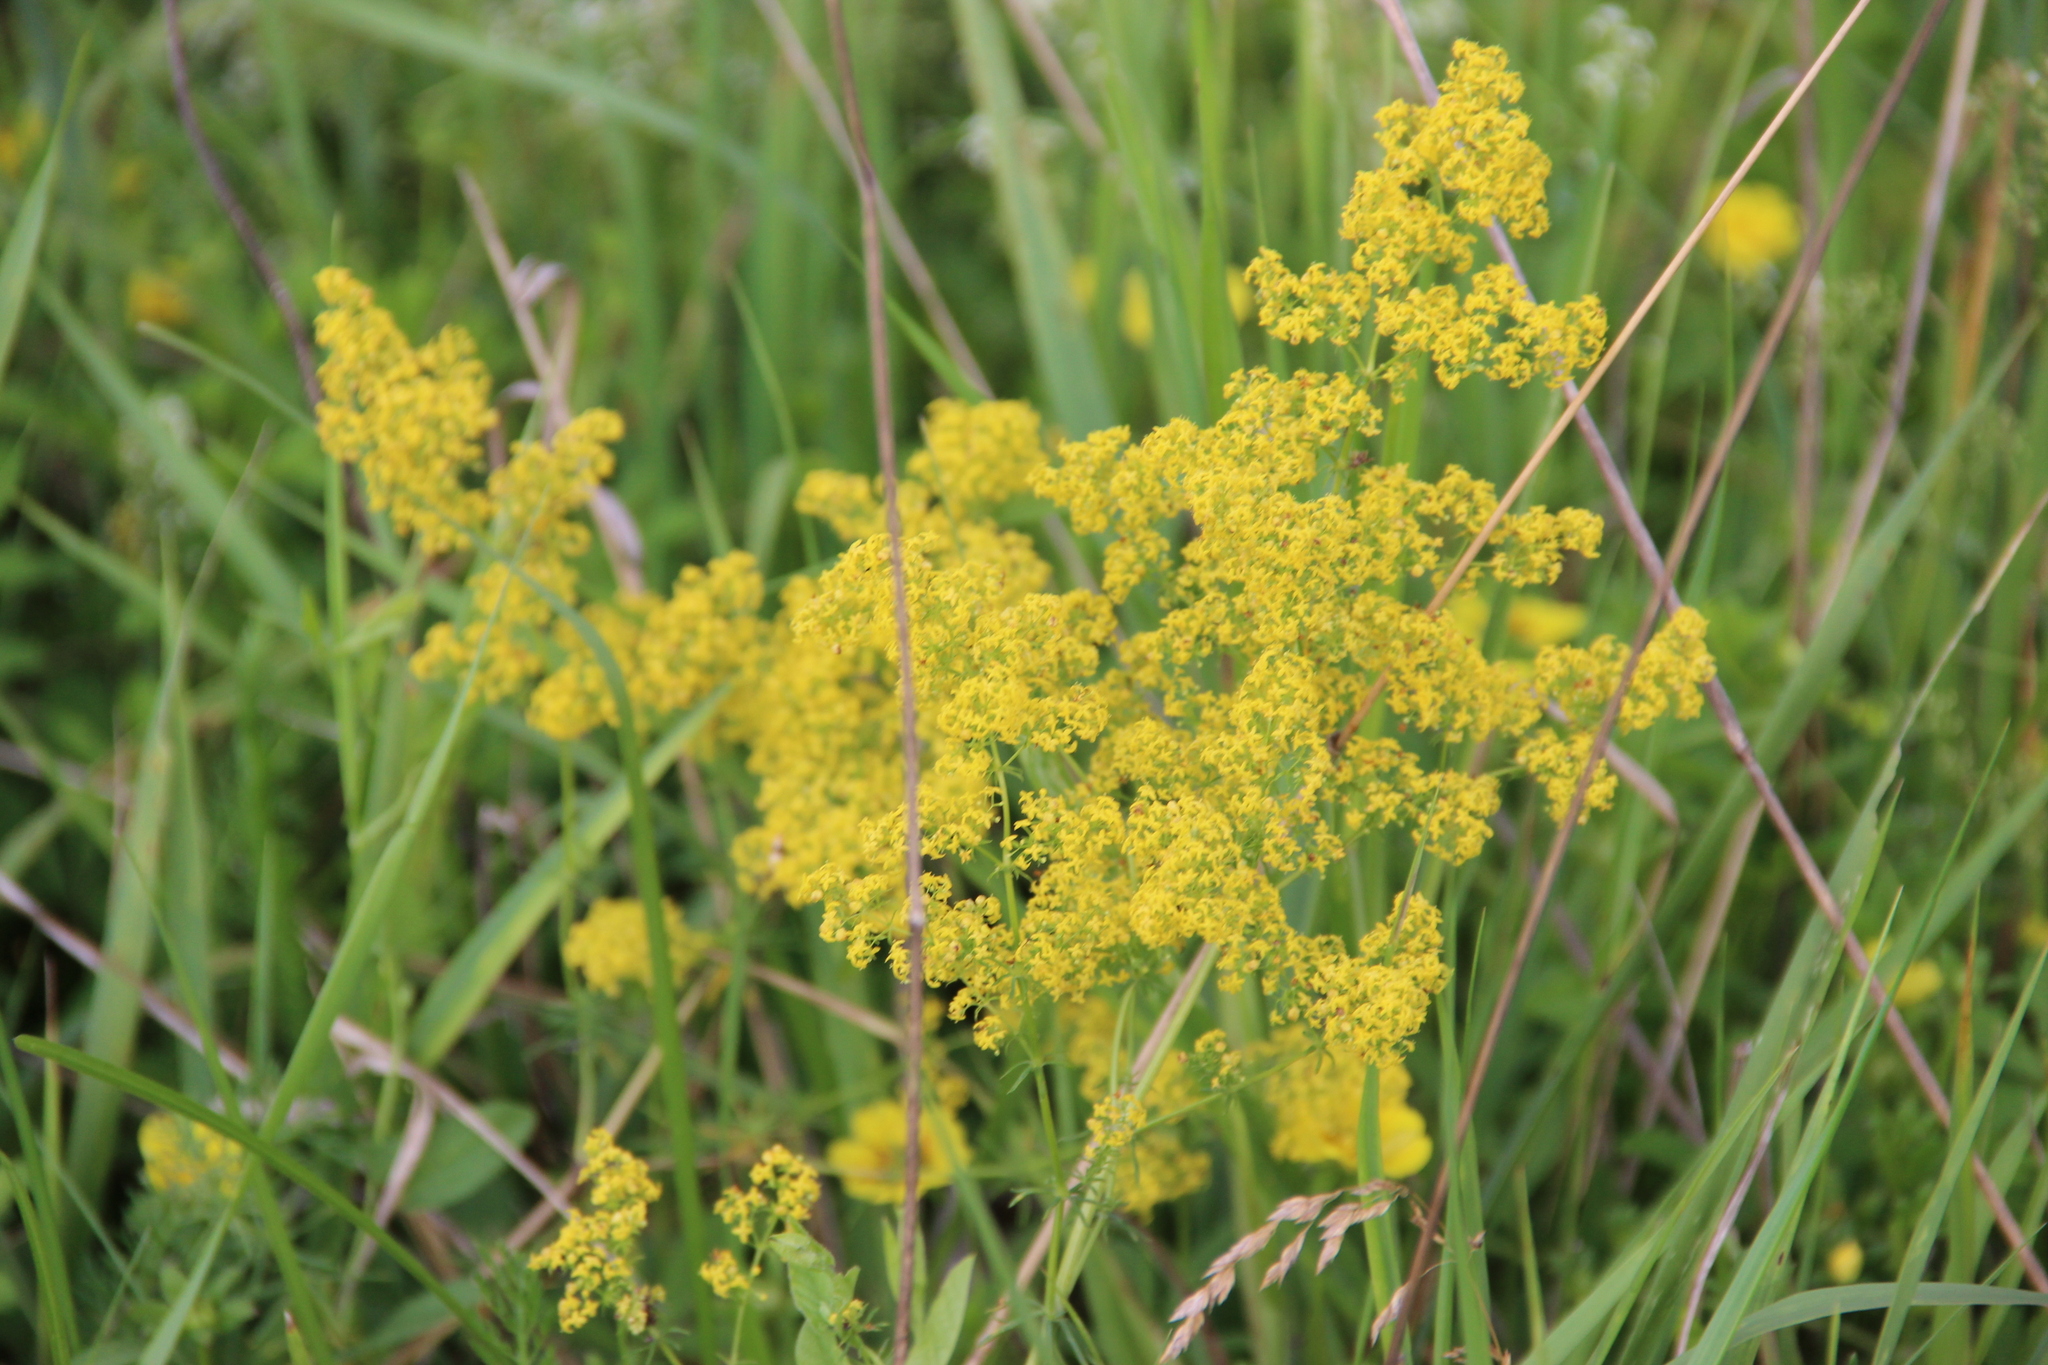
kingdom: Plantae
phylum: Tracheophyta
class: Magnoliopsida
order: Gentianales
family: Rubiaceae
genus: Galium
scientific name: Galium verum
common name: Lady's bedstraw
